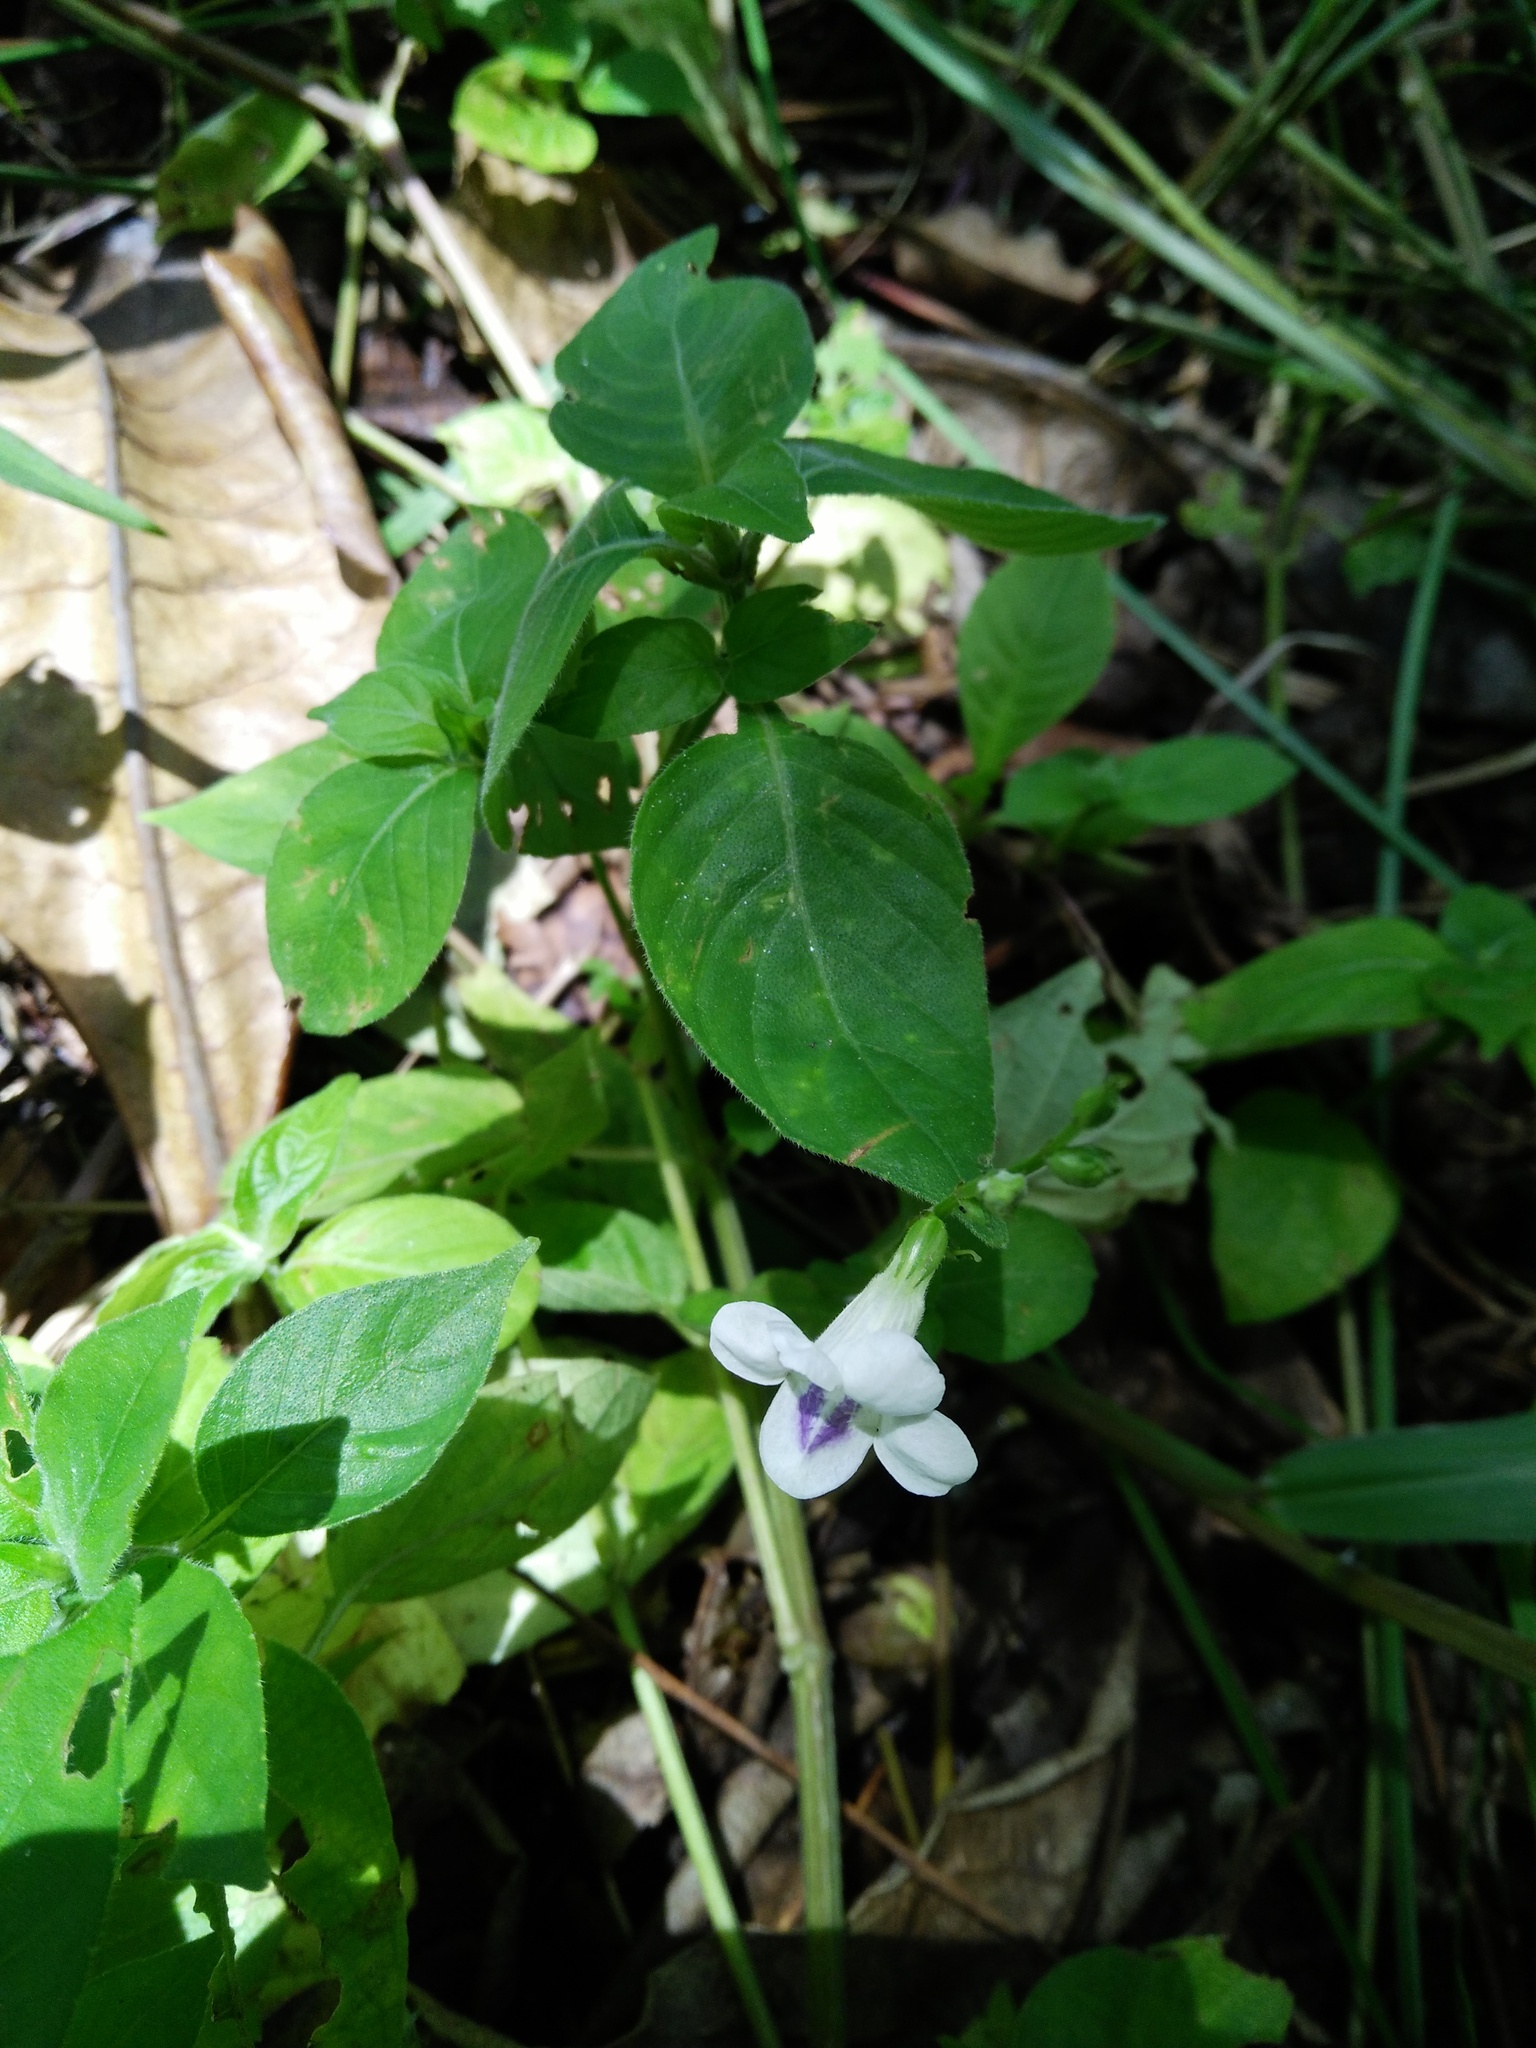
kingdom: Plantae
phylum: Tracheophyta
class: Magnoliopsida
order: Lamiales
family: Acanthaceae
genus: Asystasia
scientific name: Asystasia intrusa
